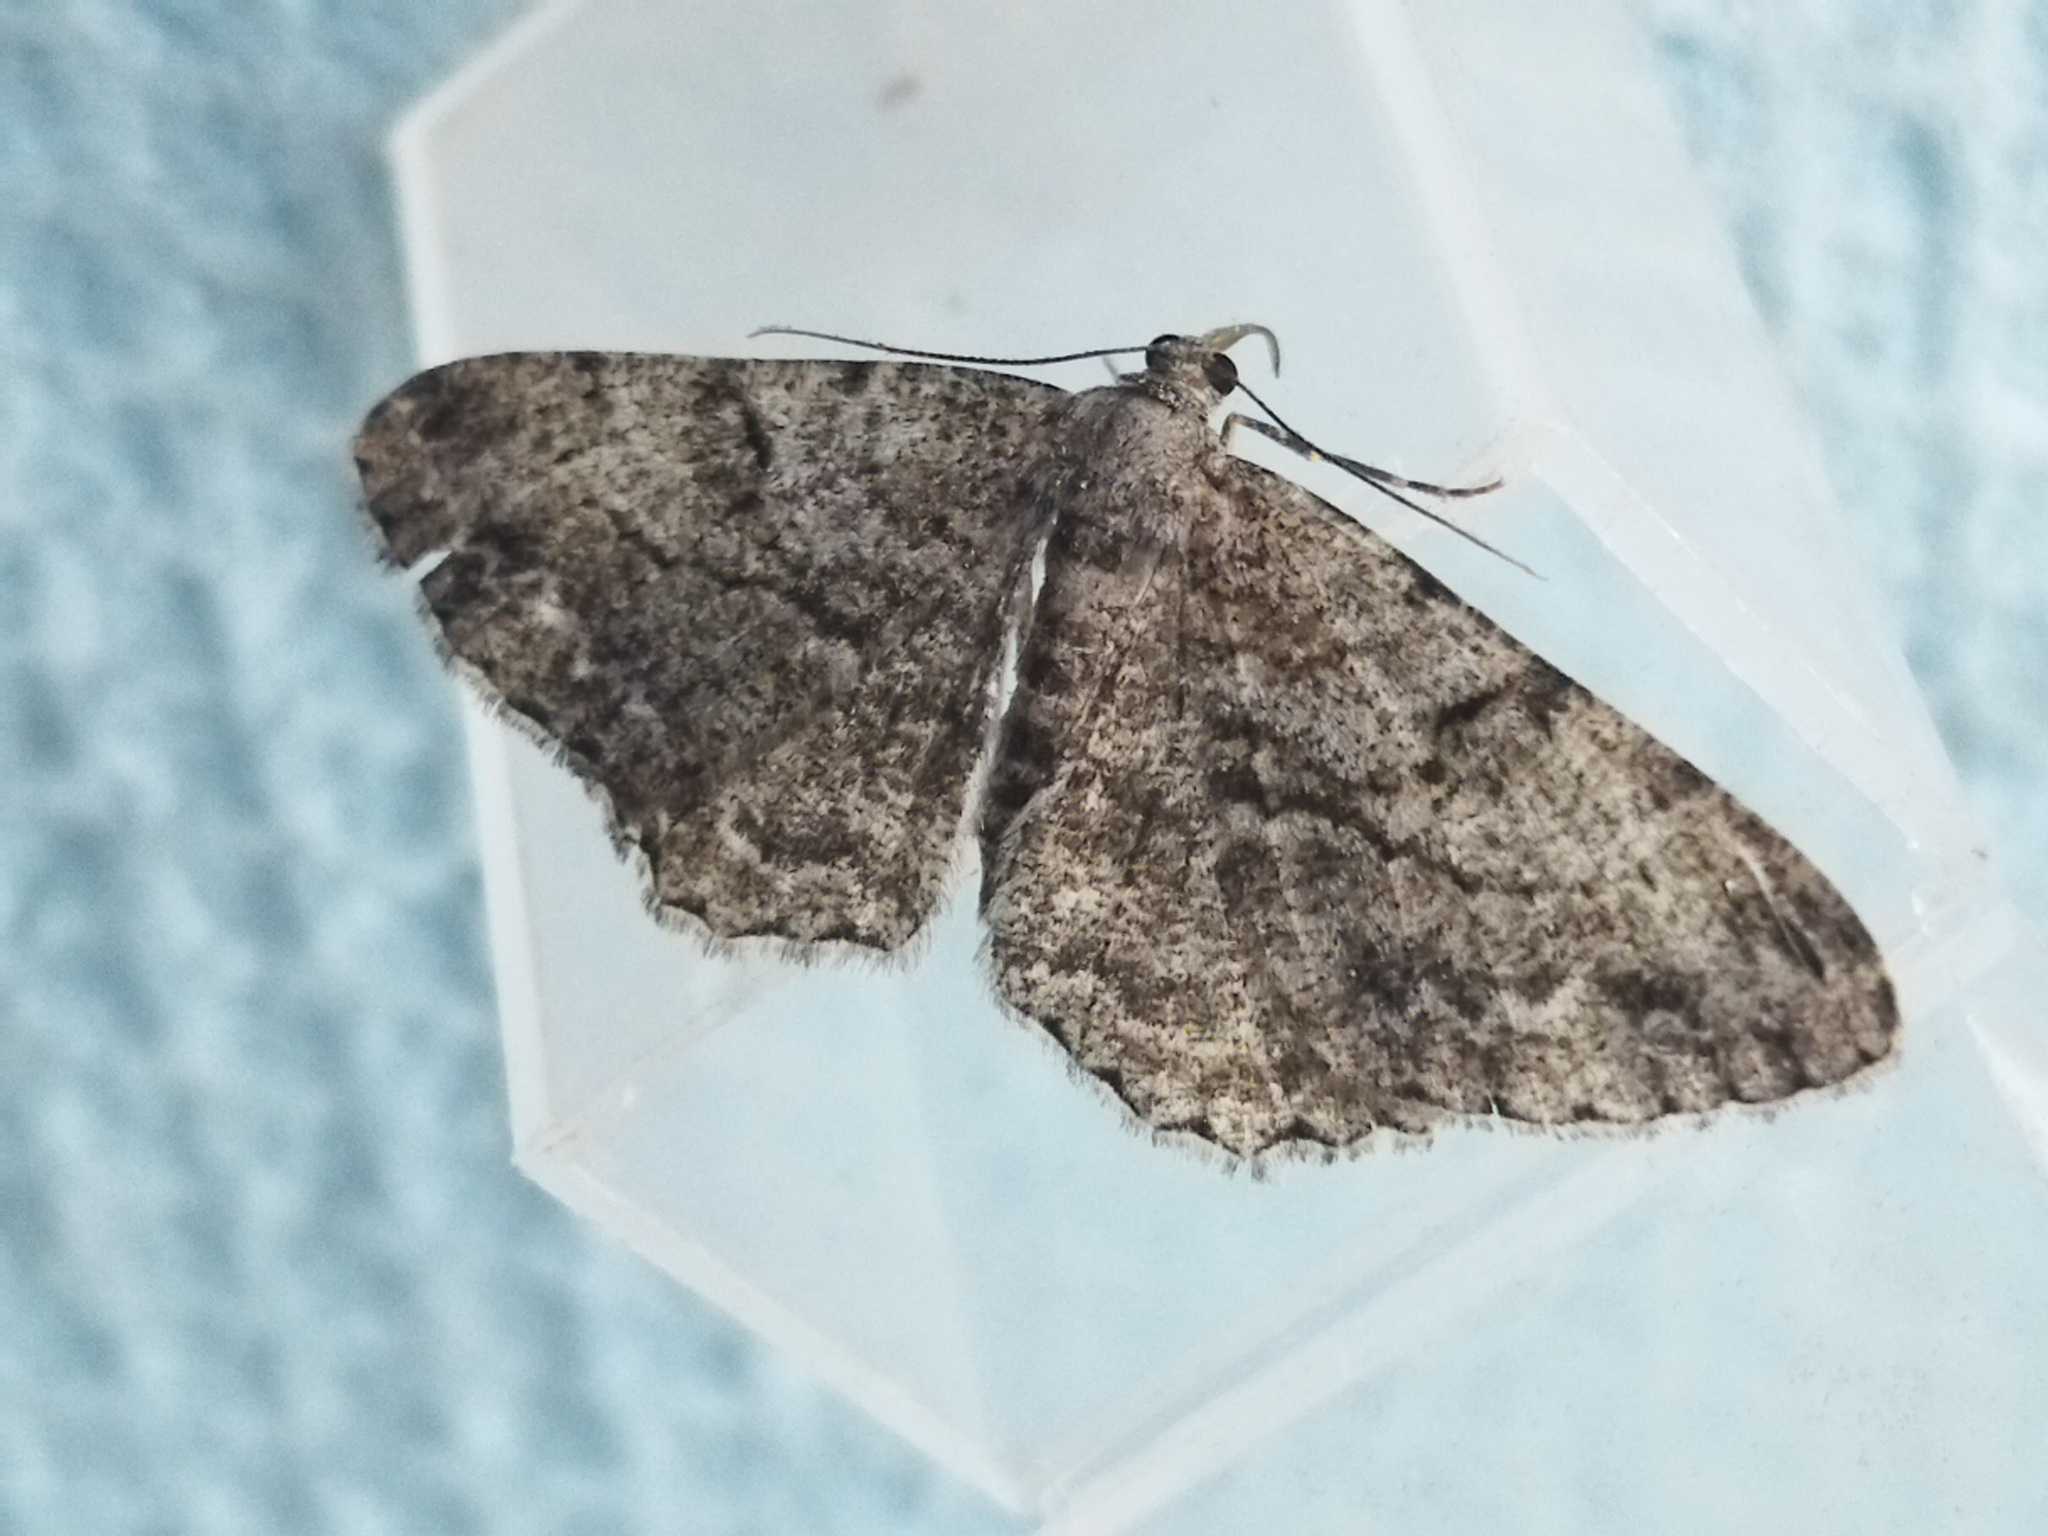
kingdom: Animalia
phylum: Arthropoda
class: Insecta
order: Lepidoptera
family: Geometridae
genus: Peribatodes
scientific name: Peribatodes rhomboidaria
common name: Willow beauty
